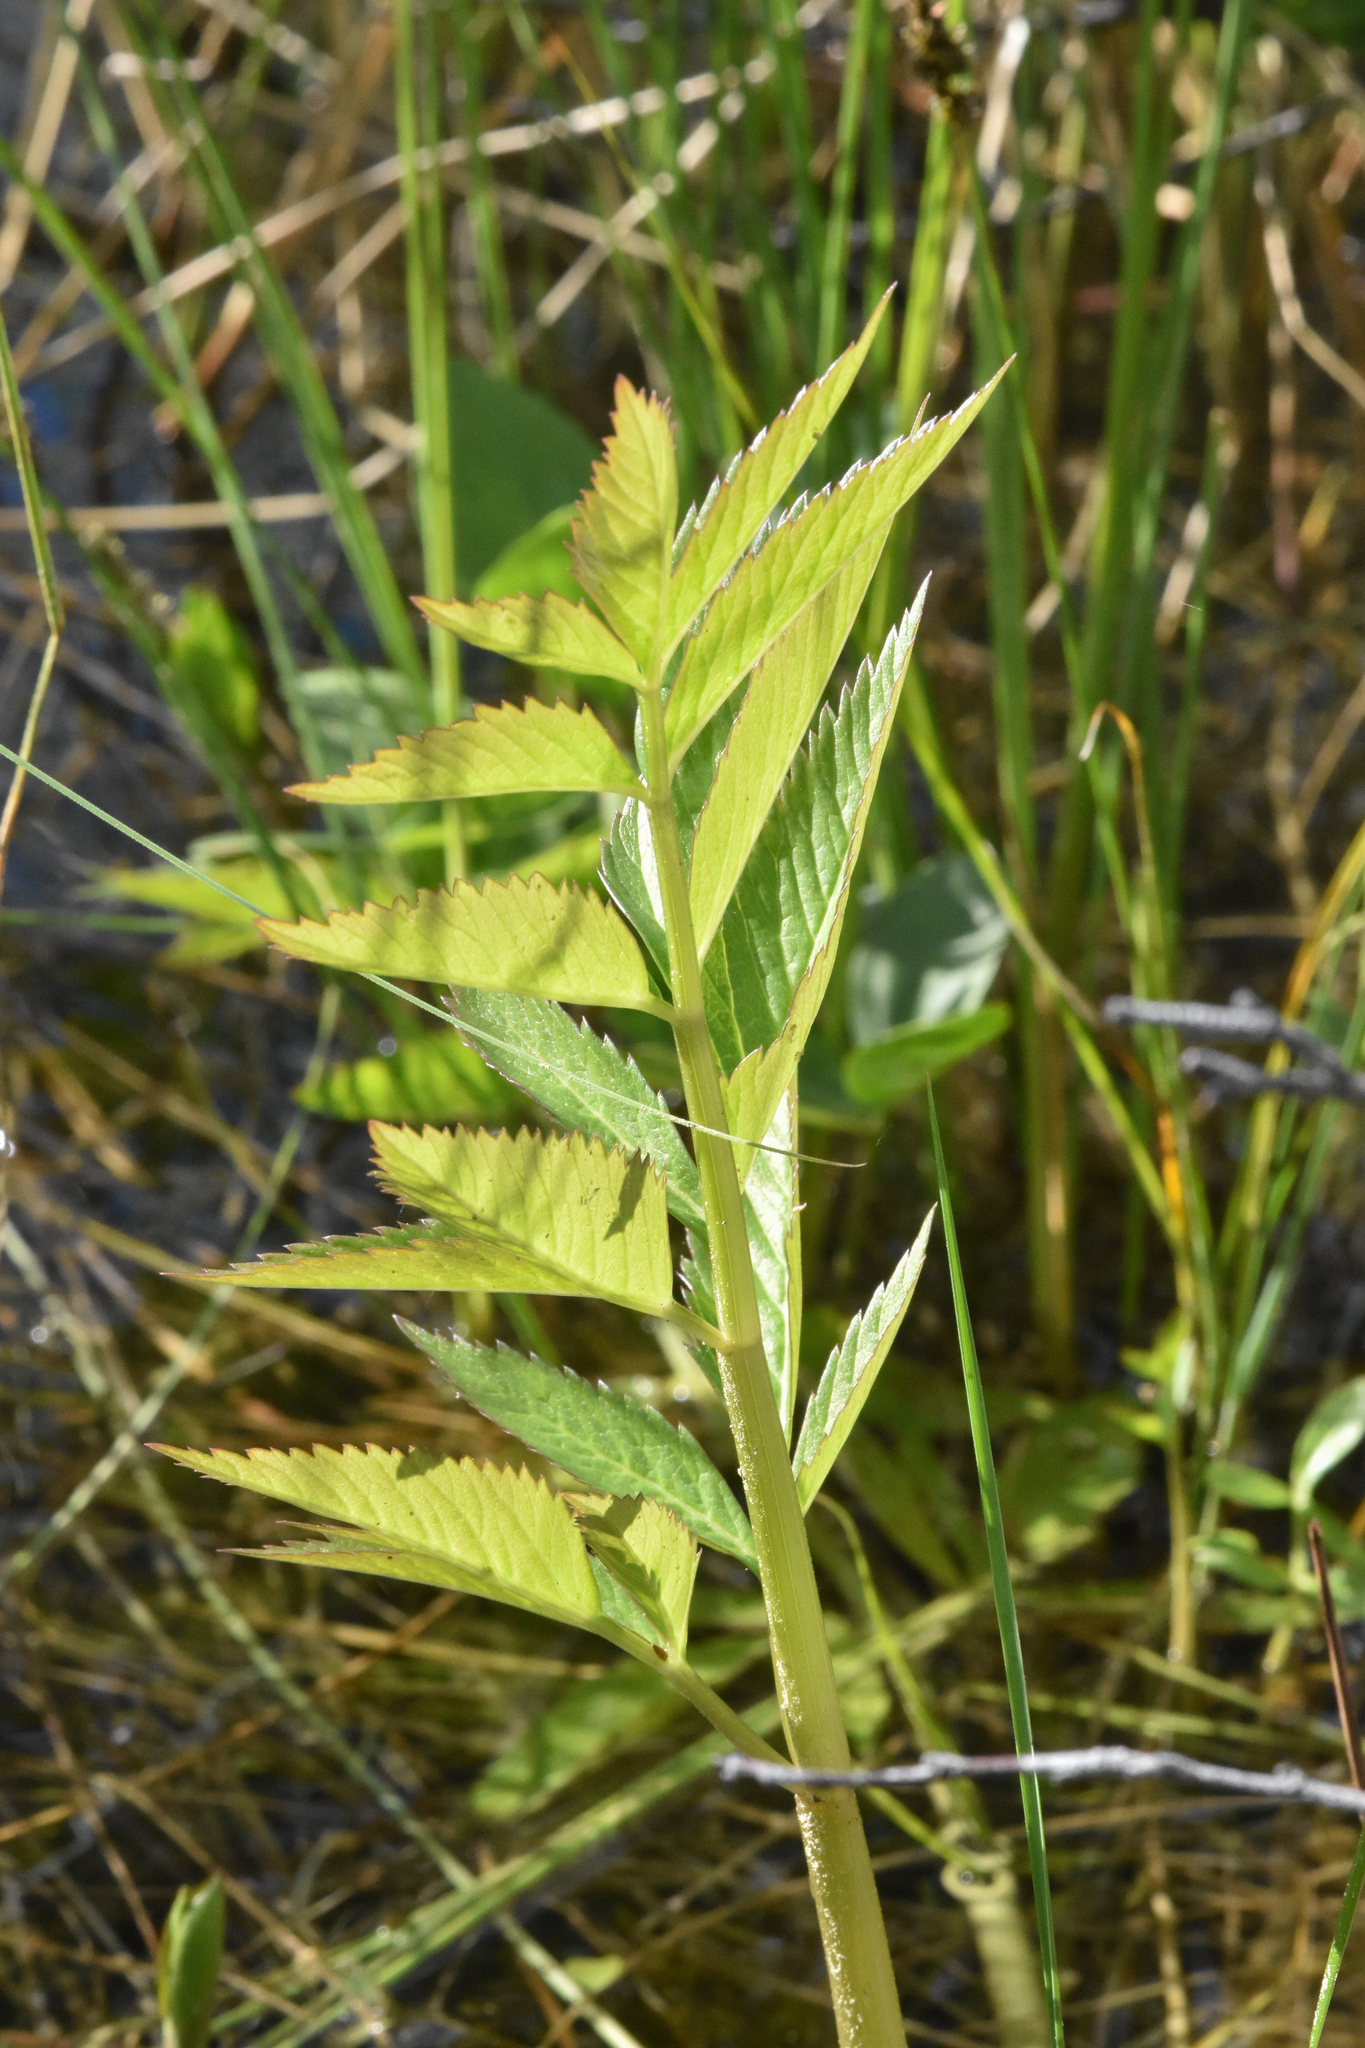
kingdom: Plantae
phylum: Tracheophyta
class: Magnoliopsida
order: Apiales
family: Apiaceae
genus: Cicuta
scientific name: Cicuta douglasii
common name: Western water-hemlock
